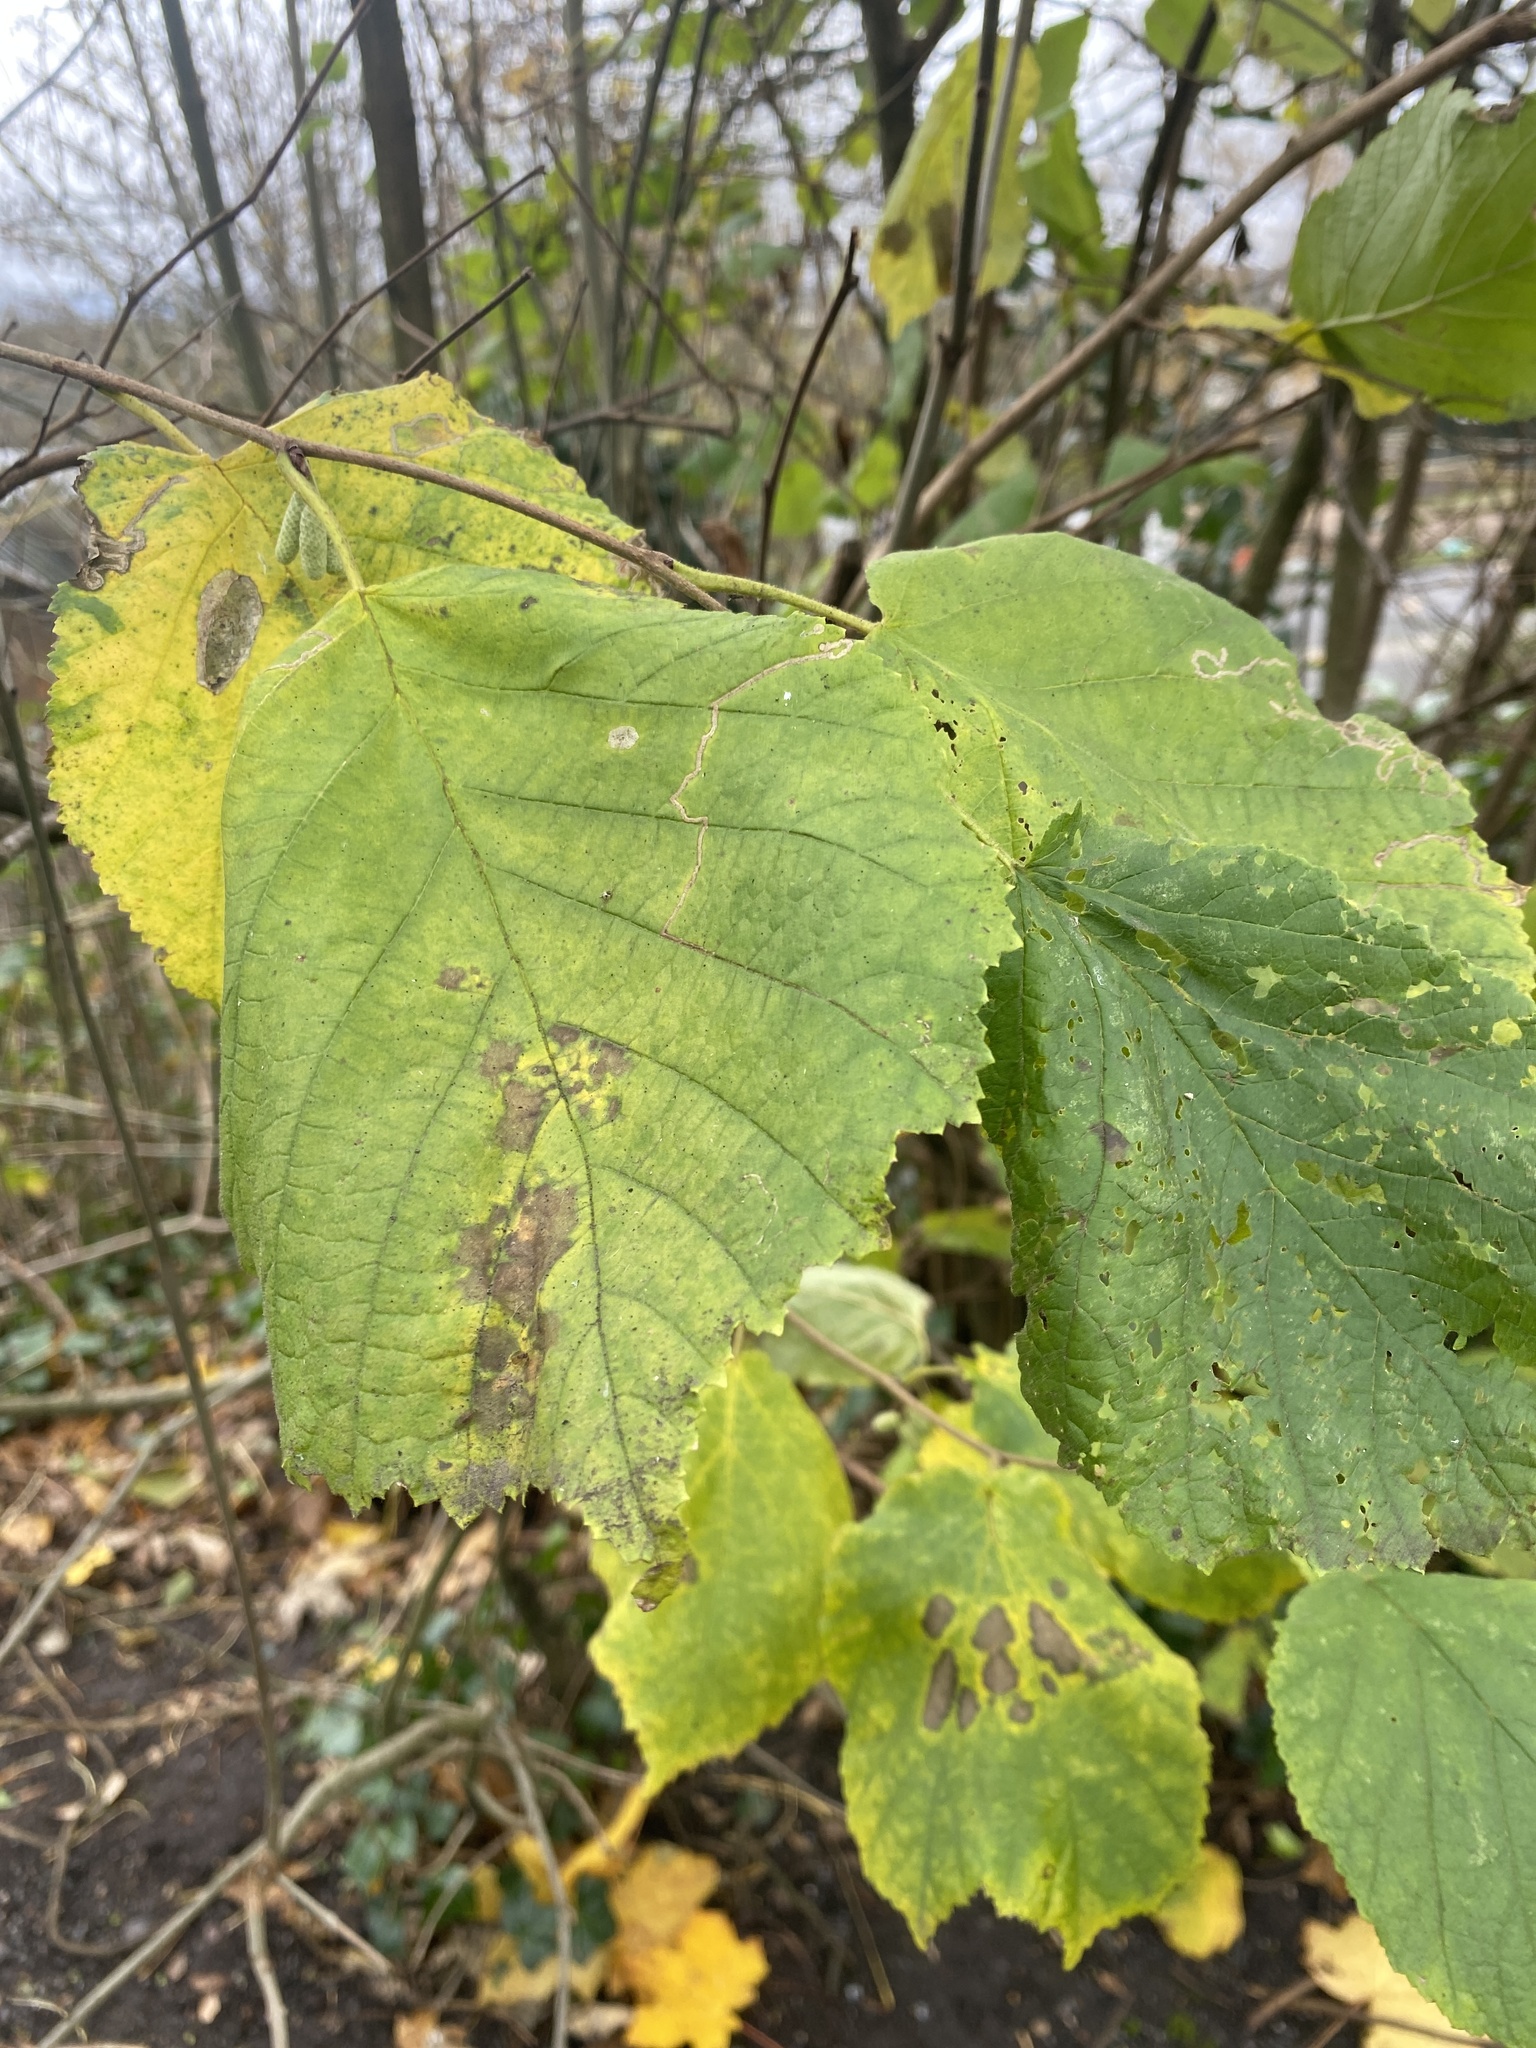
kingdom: Plantae
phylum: Tracheophyta
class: Magnoliopsida
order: Fagales
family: Betulaceae
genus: Corylus
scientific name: Corylus avellana
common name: European hazel
